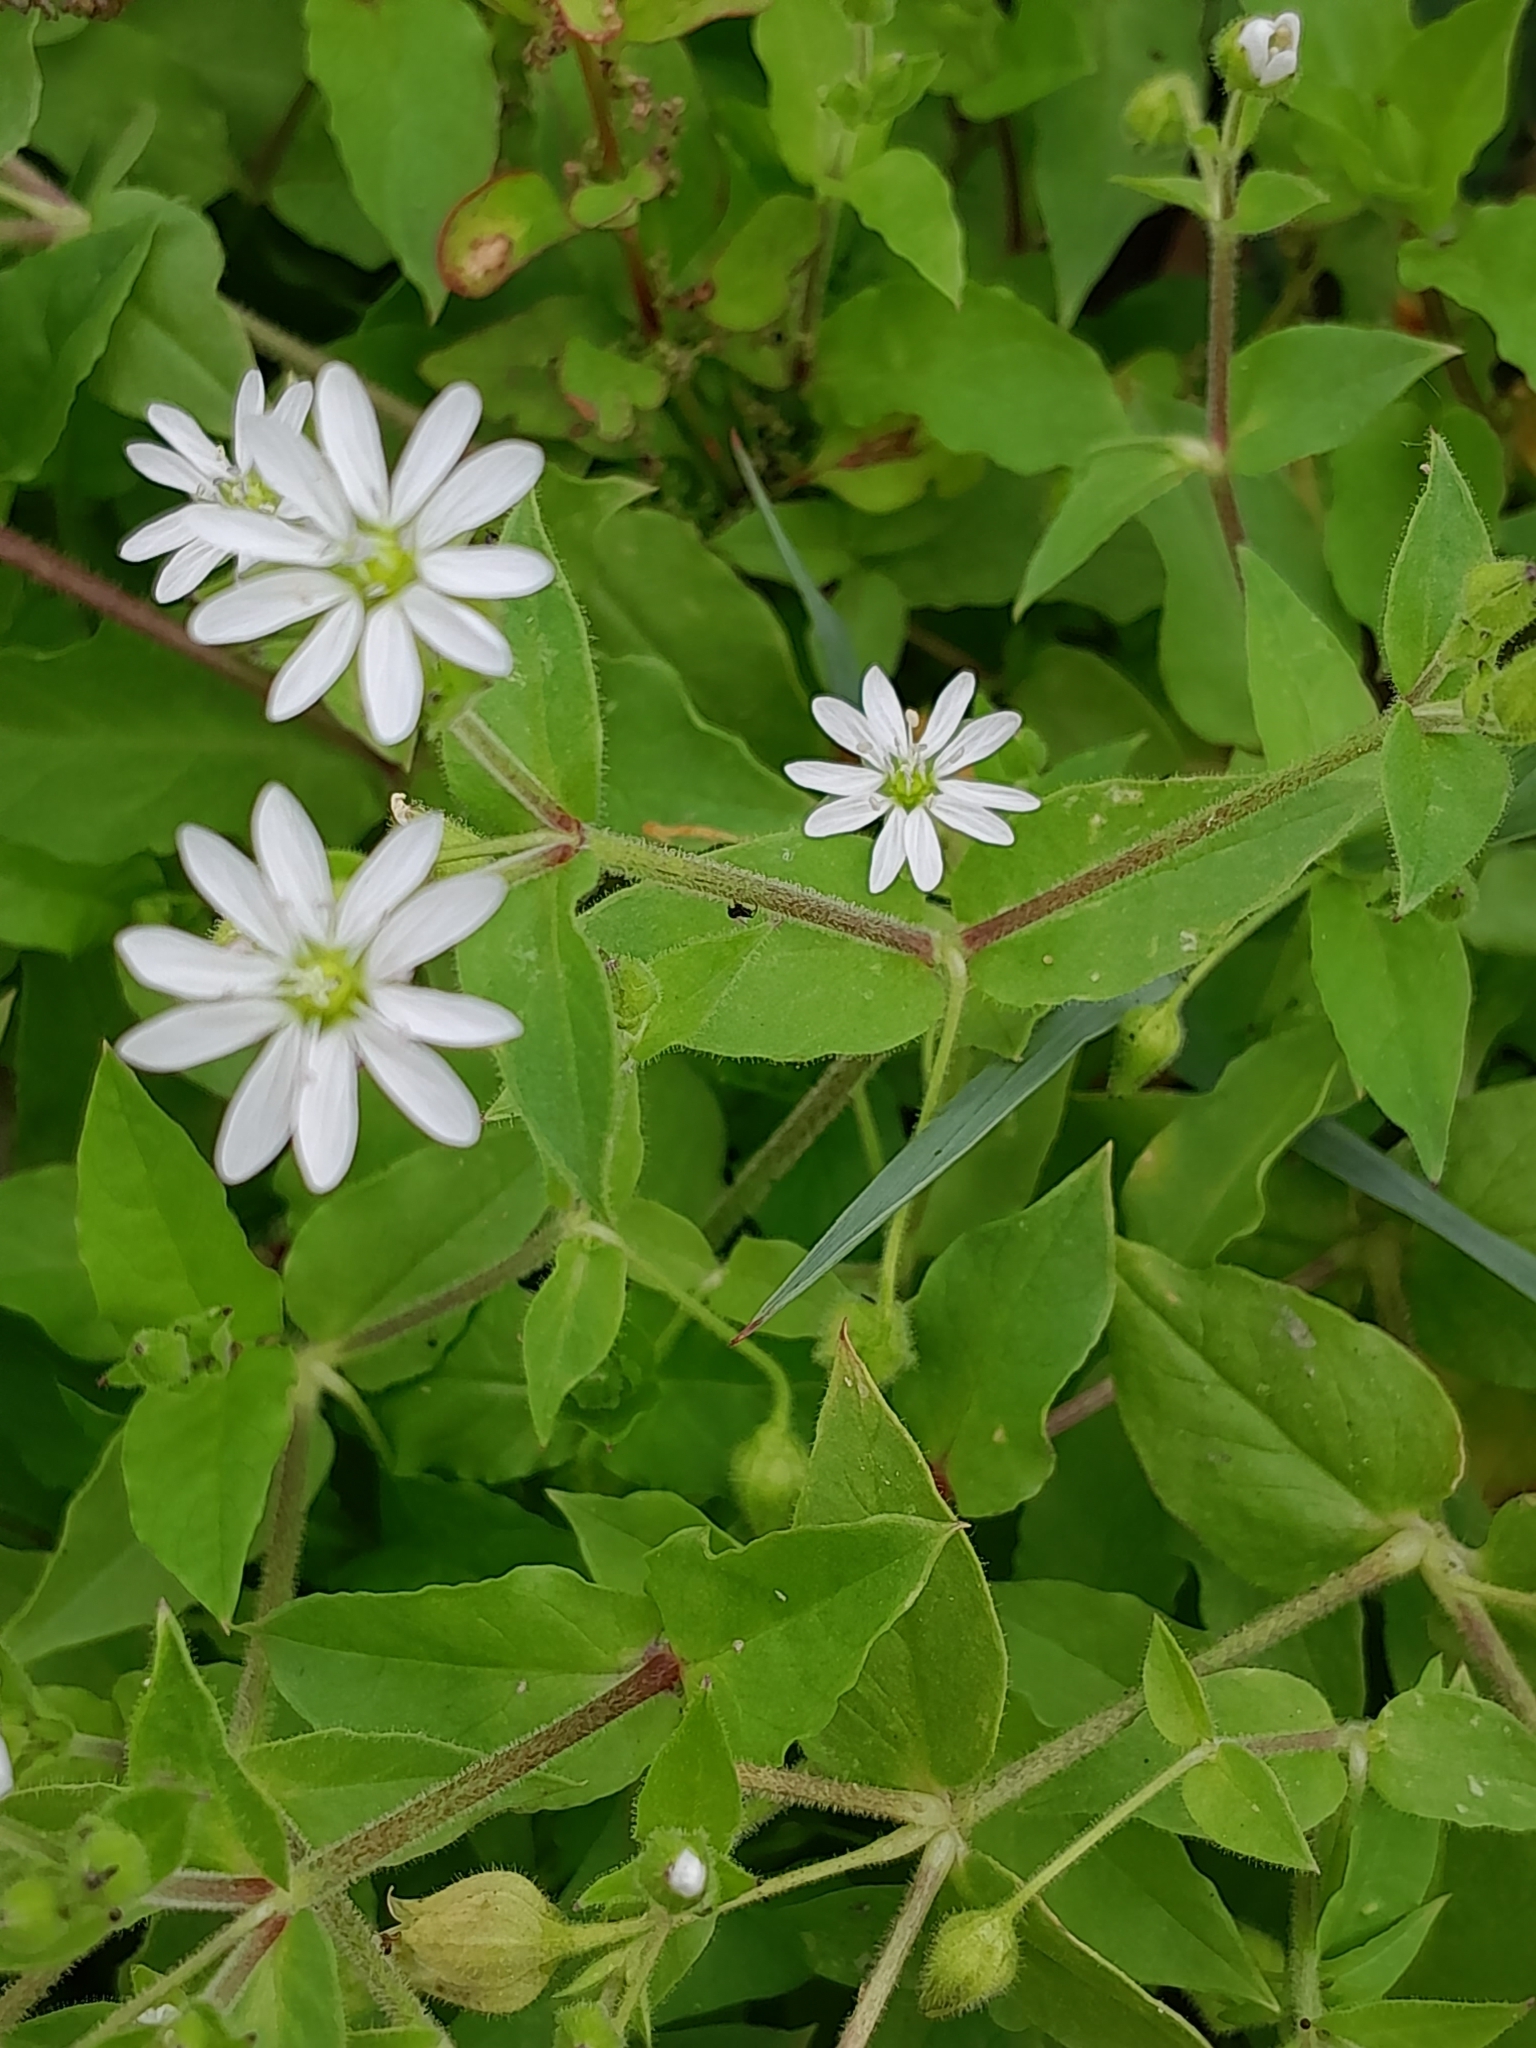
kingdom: Plantae
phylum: Tracheophyta
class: Magnoliopsida
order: Caryophyllales
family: Caryophyllaceae
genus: Stellaria
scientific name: Stellaria aquatica
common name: Water chickweed
